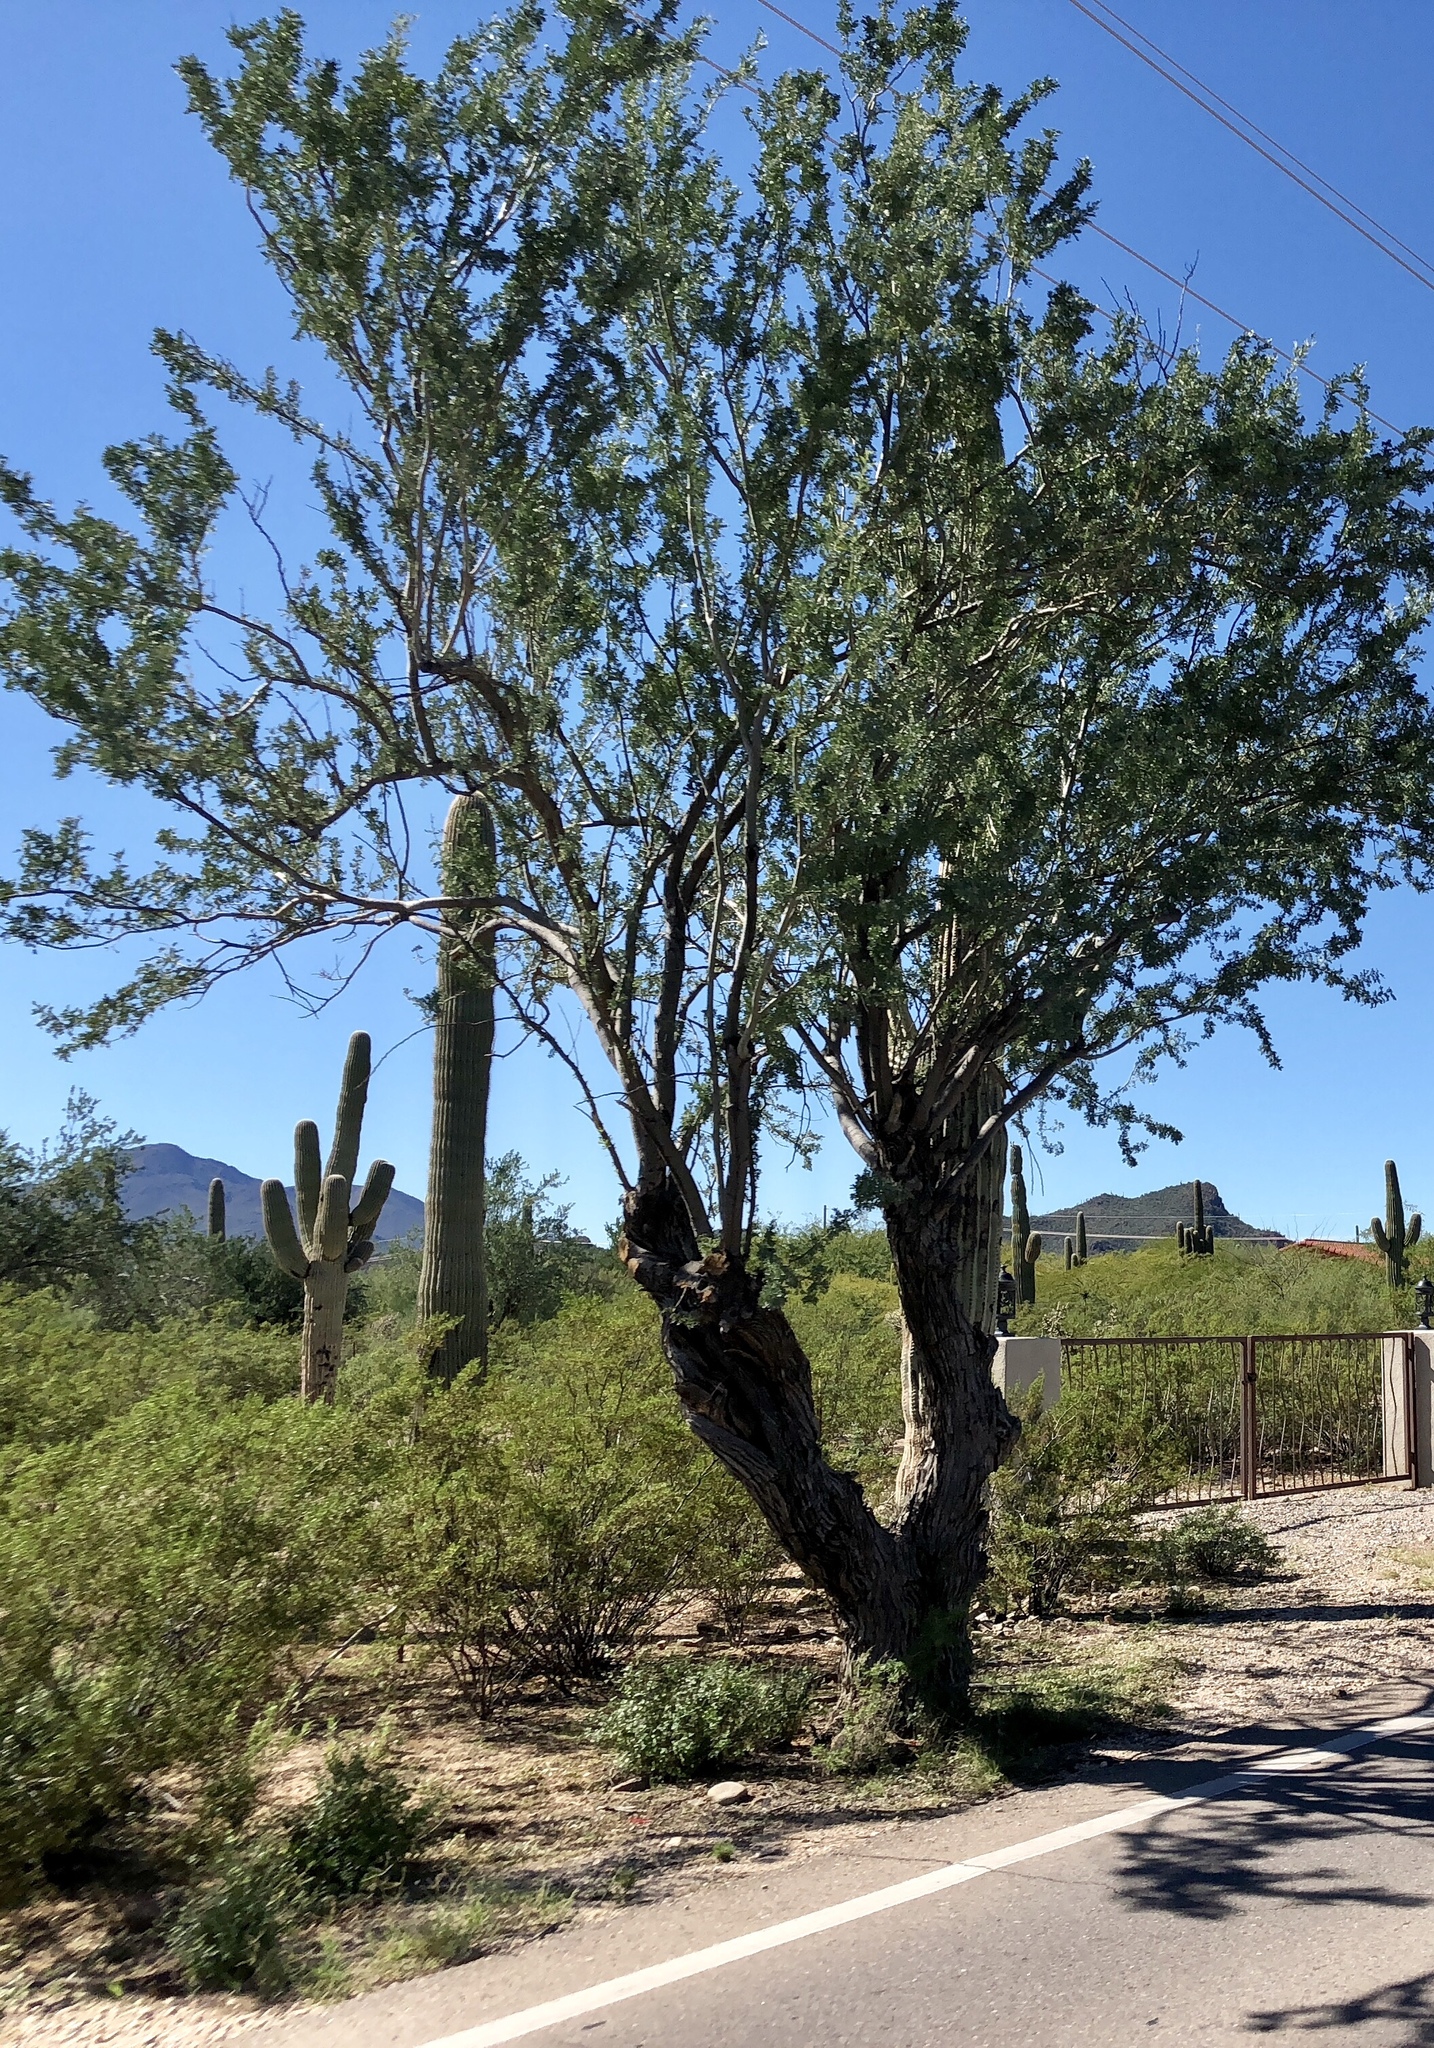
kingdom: Plantae
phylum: Tracheophyta
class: Magnoliopsida
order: Fabales
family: Fabaceae
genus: Olneya
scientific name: Olneya tesota
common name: Desert ironwood
